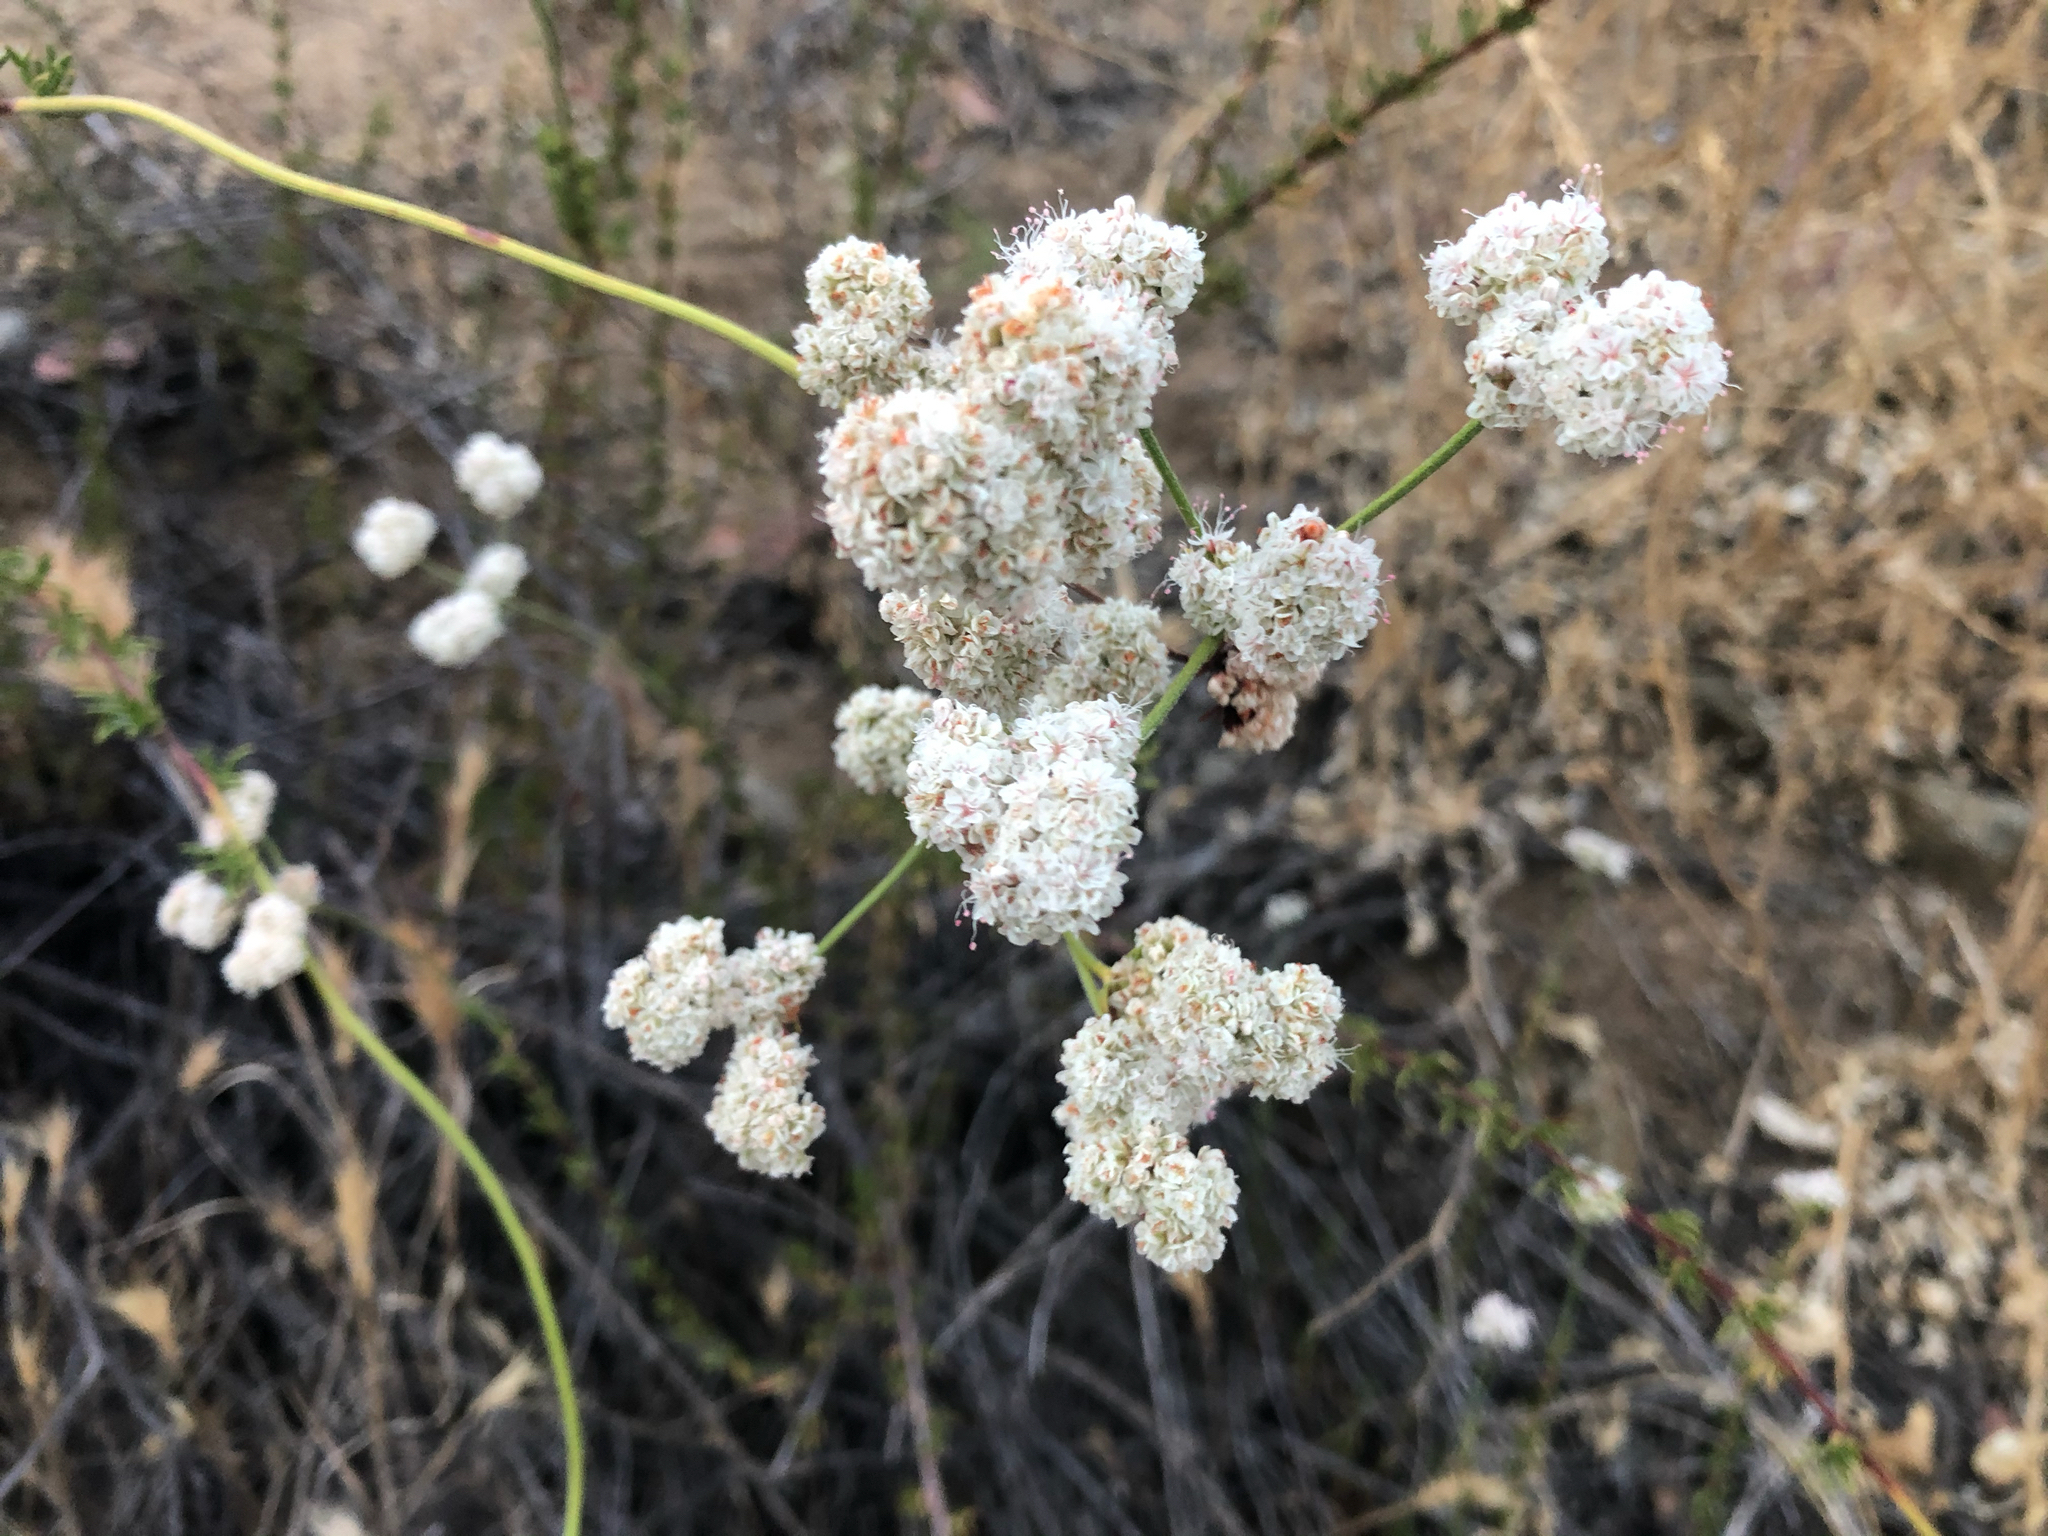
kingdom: Plantae
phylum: Tracheophyta
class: Magnoliopsida
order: Caryophyllales
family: Polygonaceae
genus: Eriogonum
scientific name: Eriogonum fasciculatum
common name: California wild buckwheat
